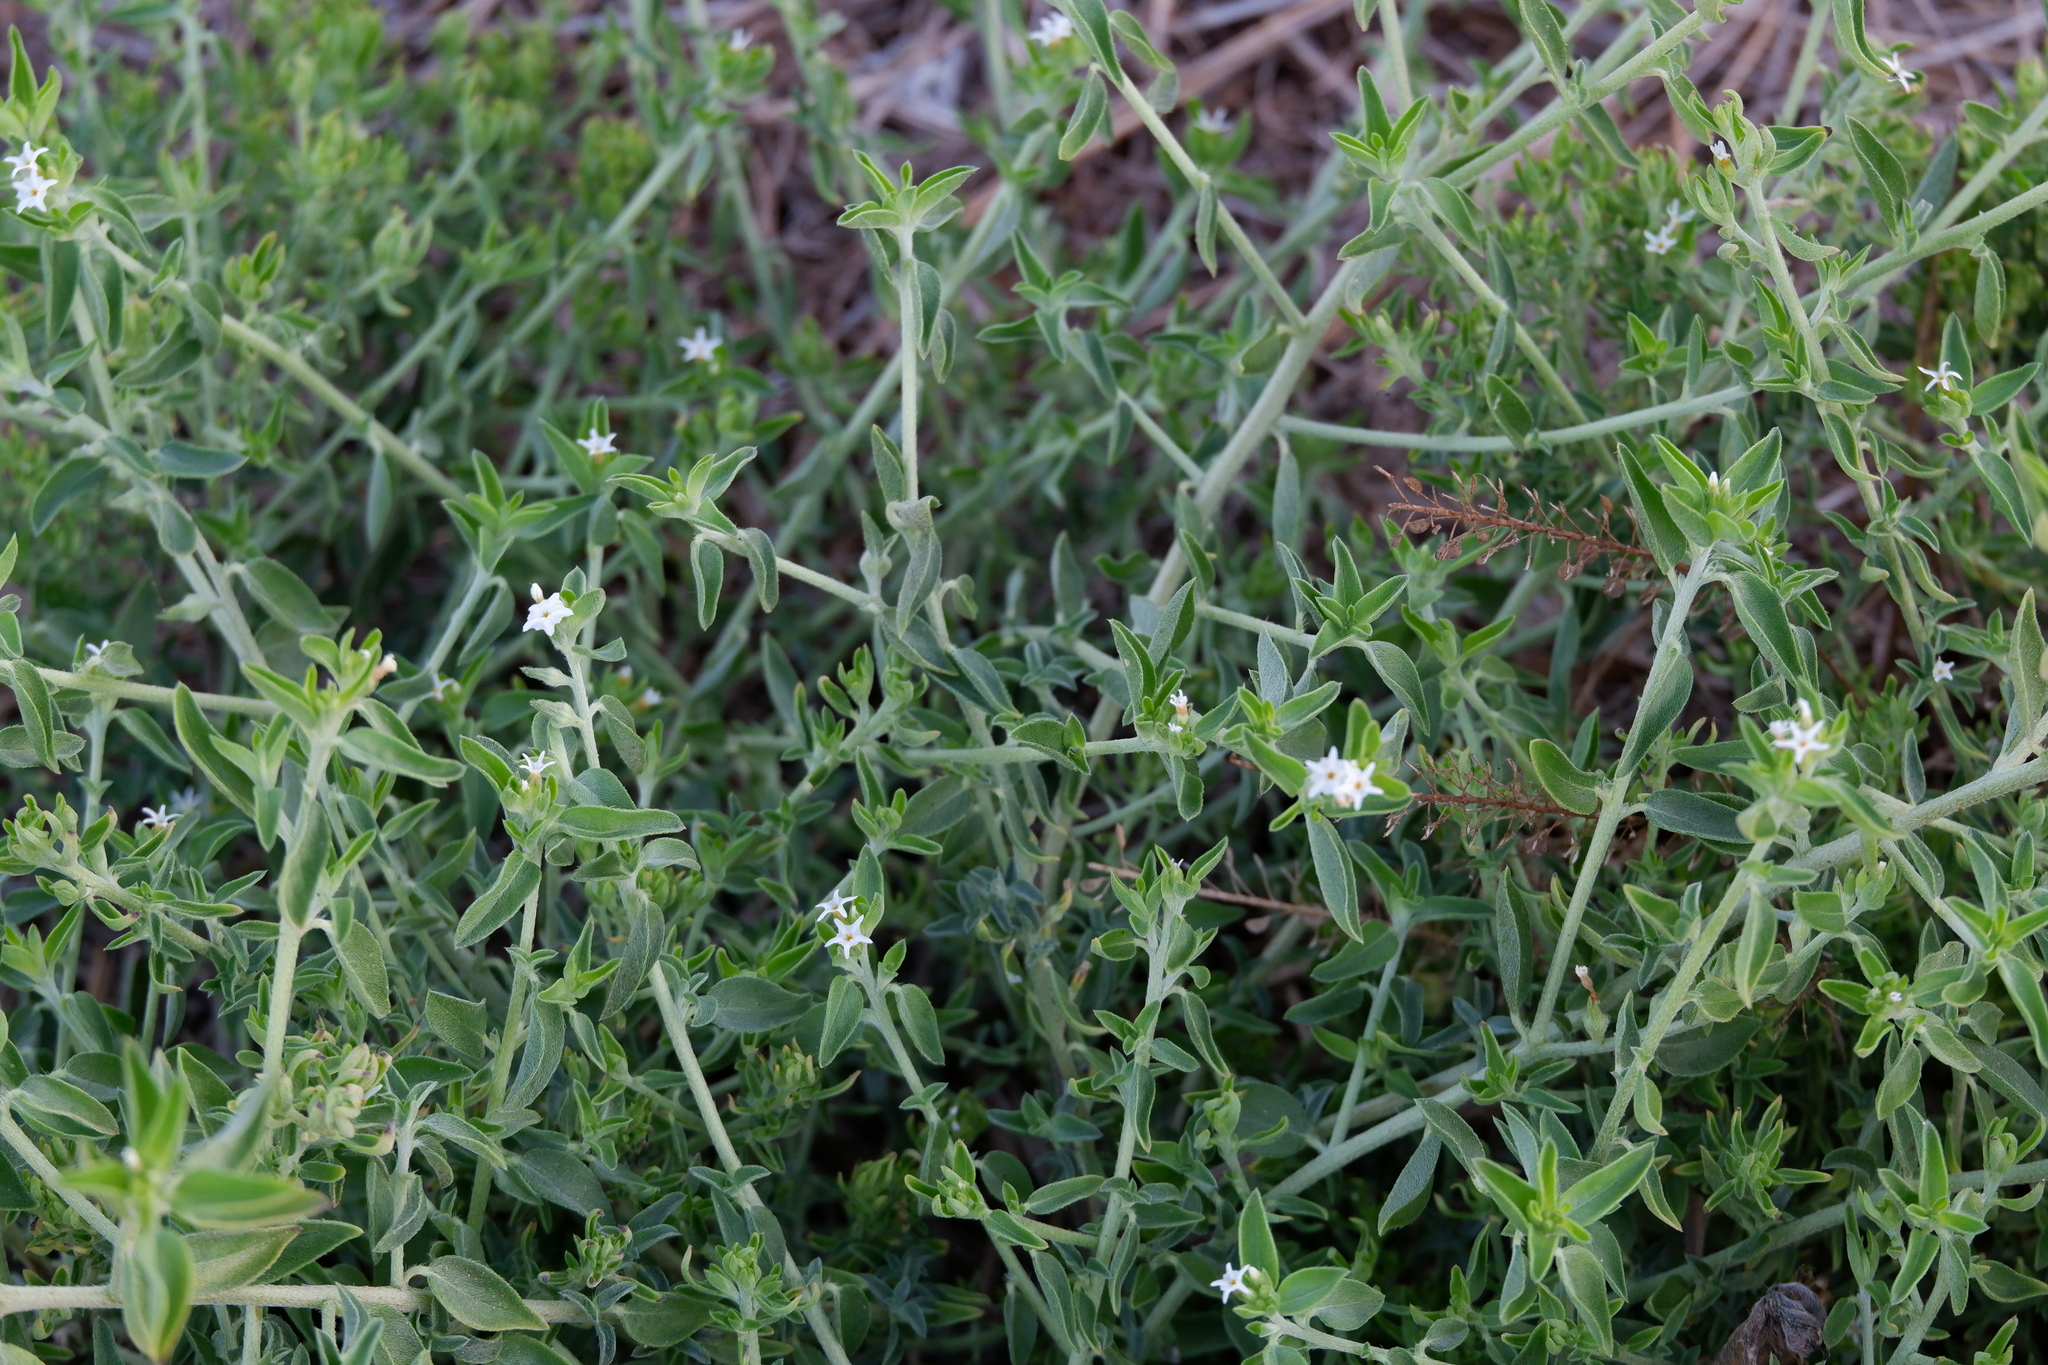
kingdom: Plantae
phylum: Tracheophyta
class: Magnoliopsida
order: Boraginales
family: Heliotropiaceae
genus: Euploca
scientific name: Euploca racemosa
